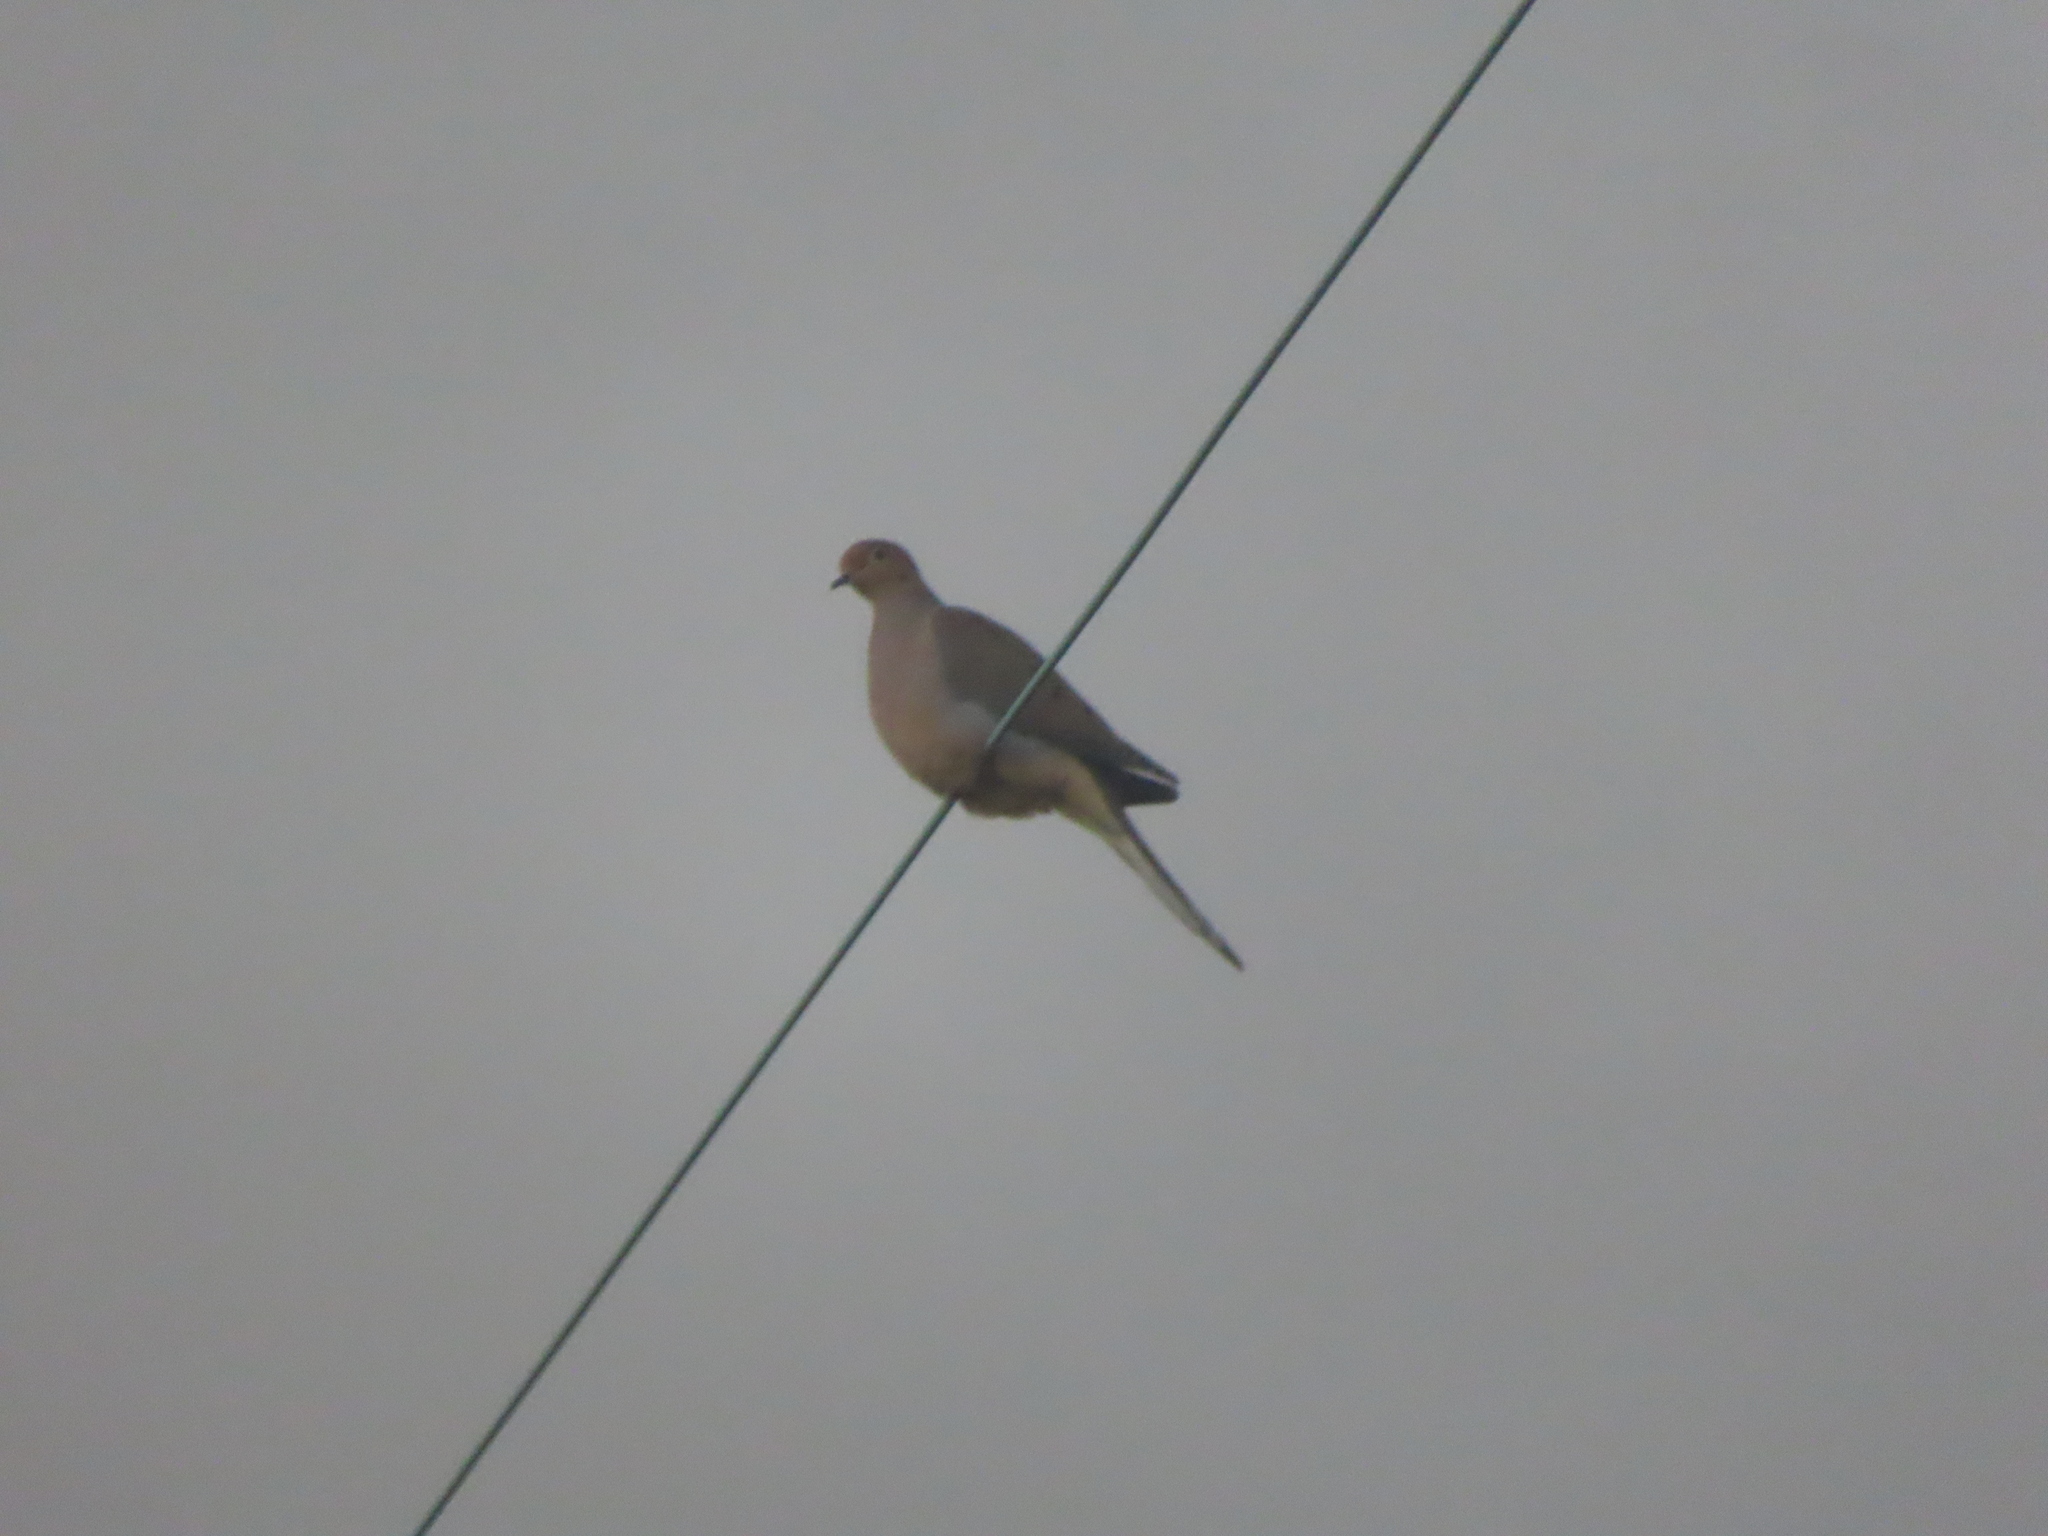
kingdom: Animalia
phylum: Chordata
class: Aves
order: Columbiformes
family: Columbidae
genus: Zenaida
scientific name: Zenaida macroura
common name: Mourning dove
